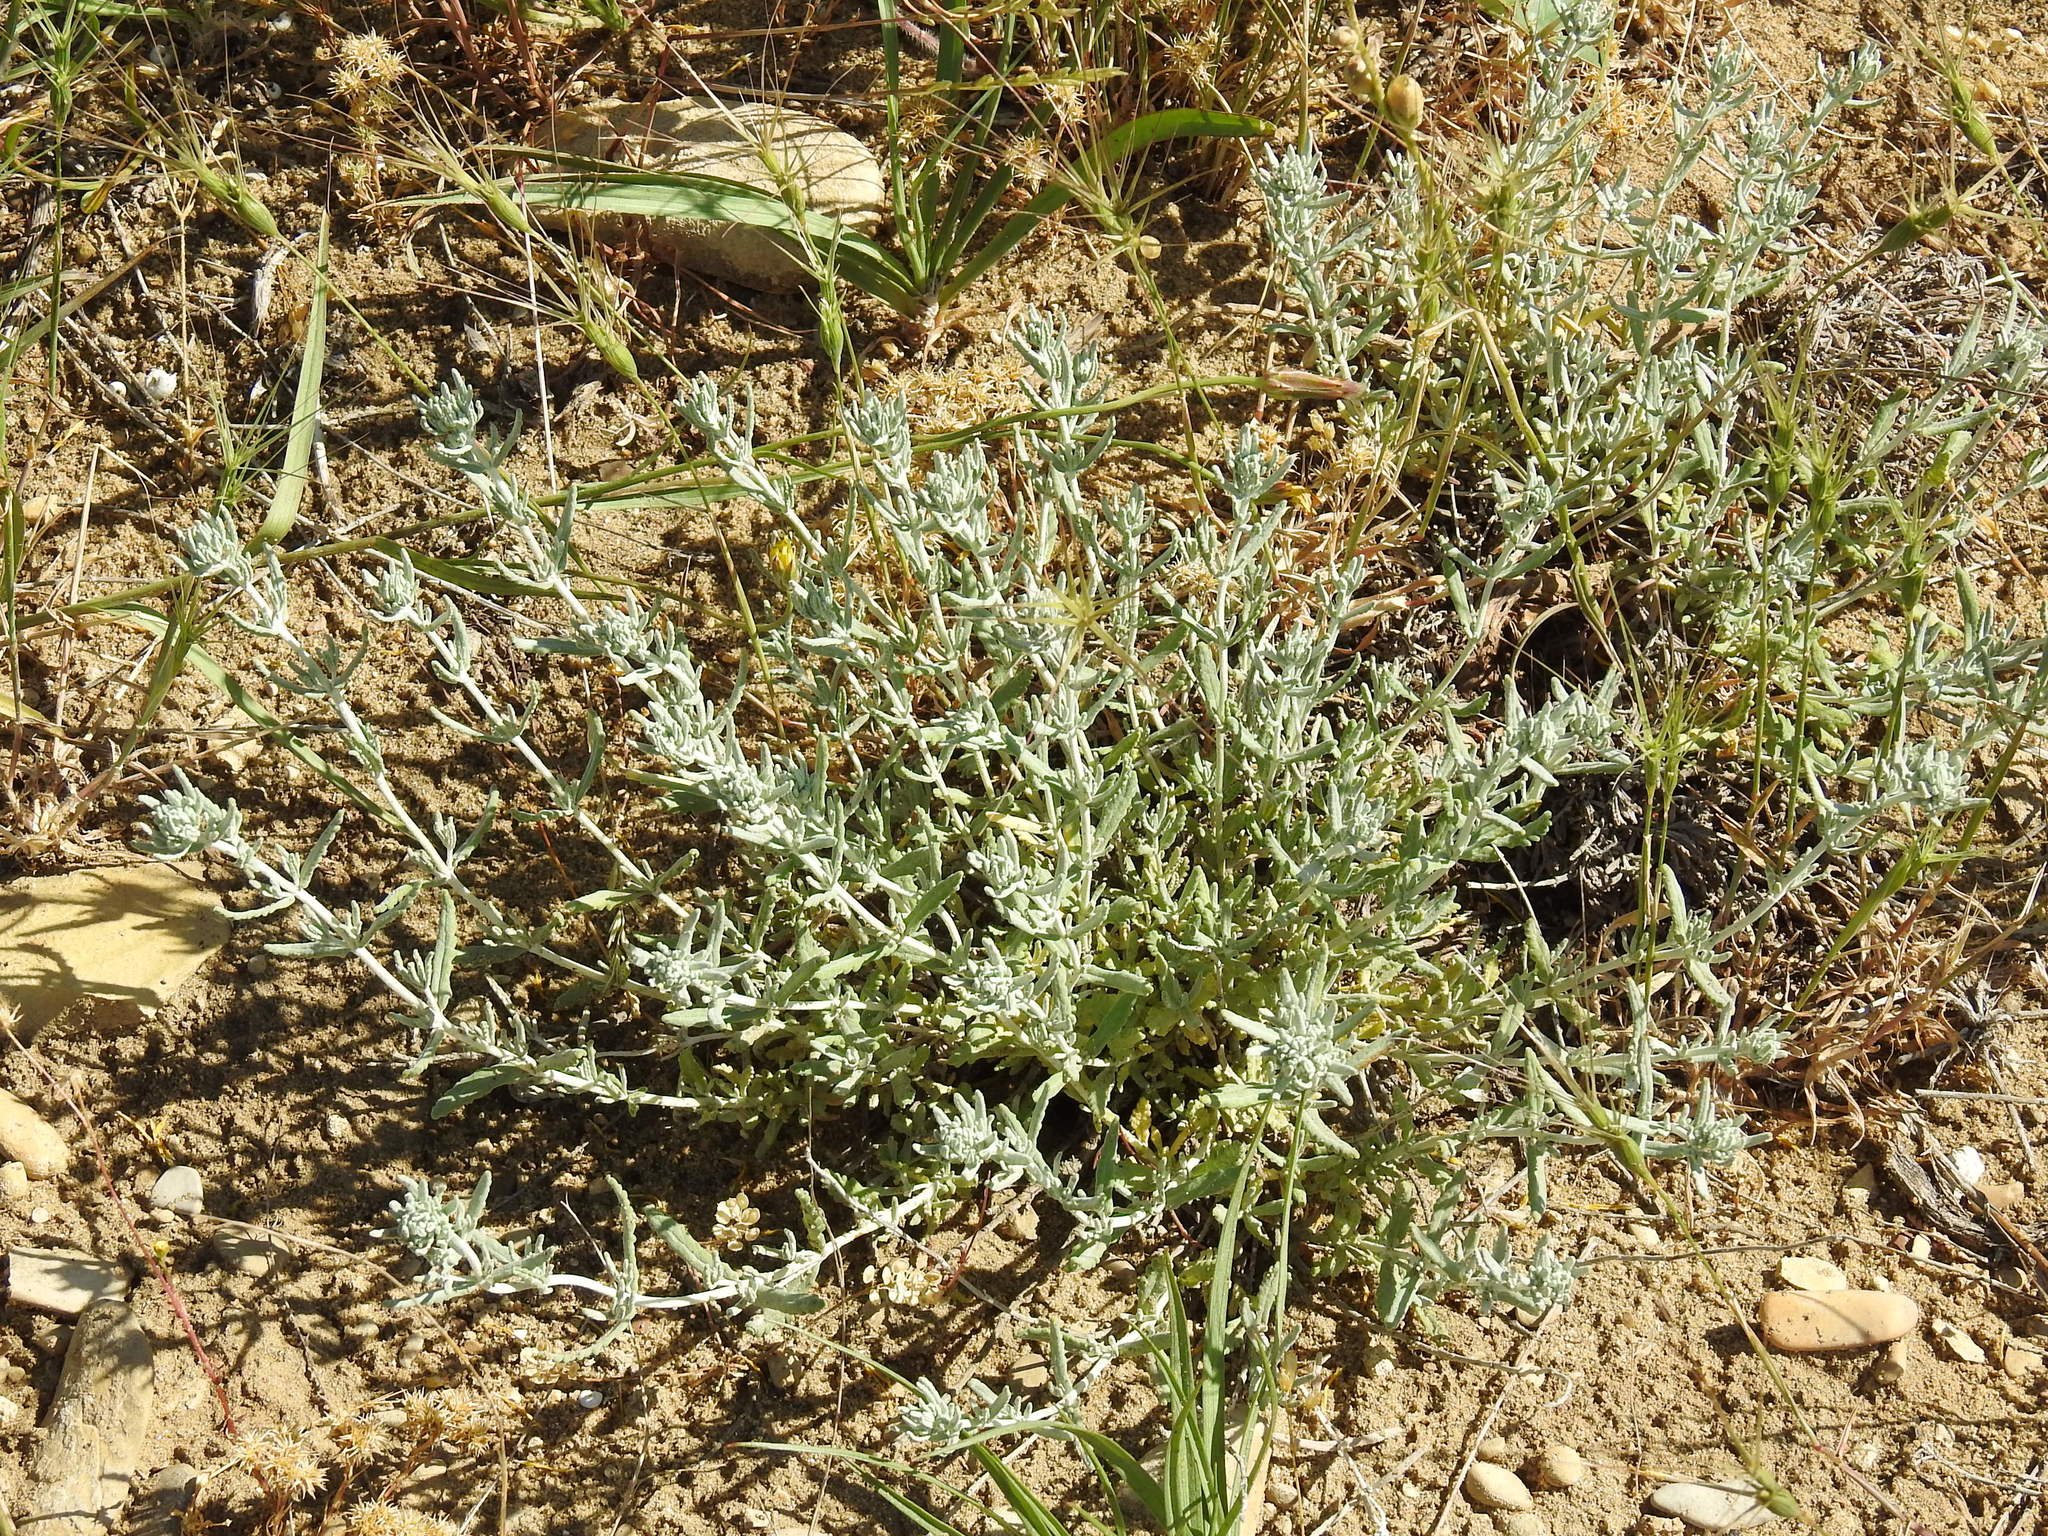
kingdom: Plantae
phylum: Tracheophyta
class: Magnoliopsida
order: Lamiales
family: Lamiaceae
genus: Teucrium
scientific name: Teucrium polium
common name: Poley
